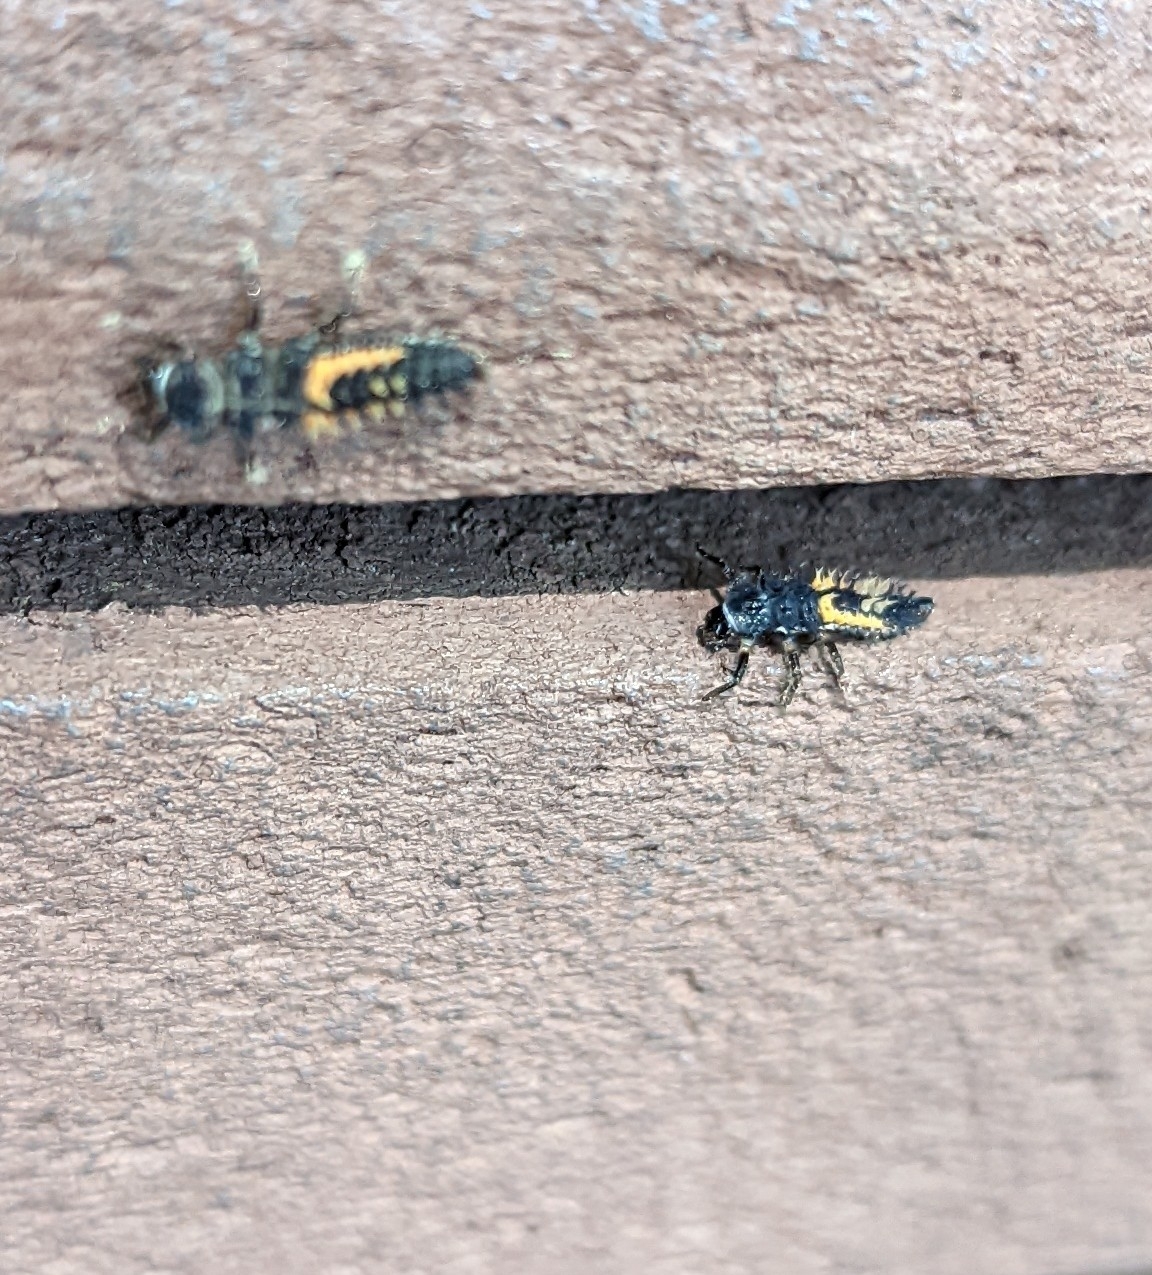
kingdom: Animalia
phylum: Arthropoda
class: Insecta
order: Coleoptera
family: Coccinellidae
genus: Harmonia
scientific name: Harmonia axyridis
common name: Harlequin ladybird
